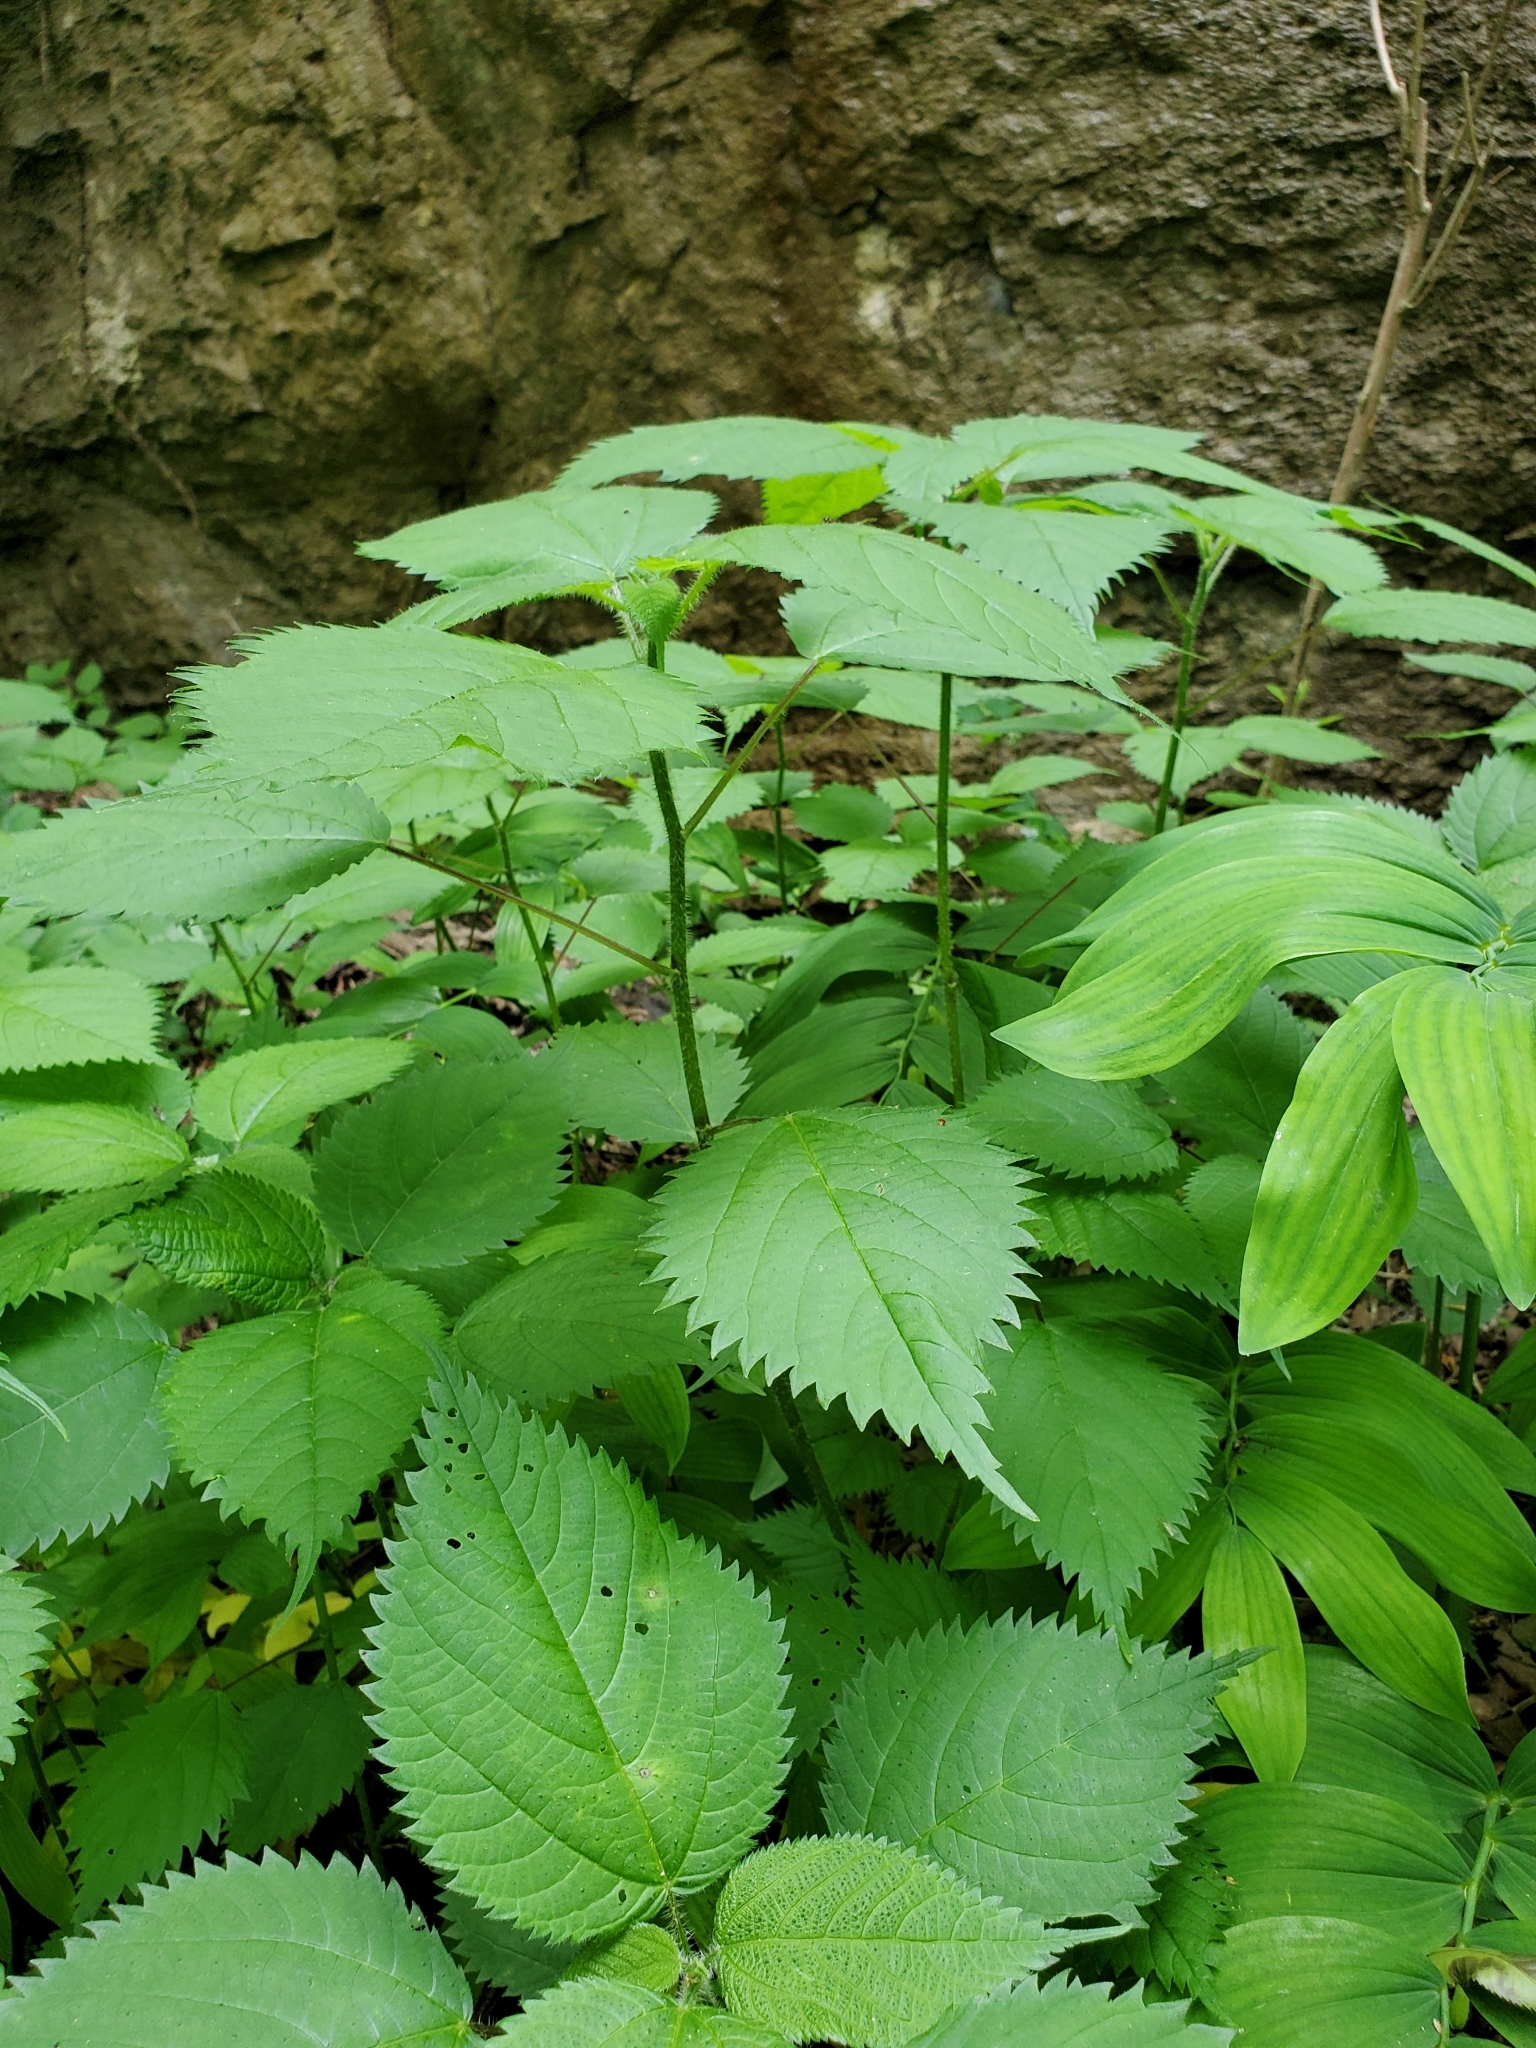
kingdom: Plantae
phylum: Tracheophyta
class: Magnoliopsida
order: Rosales
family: Urticaceae
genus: Laportea
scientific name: Laportea canadensis
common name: Canada nettle
